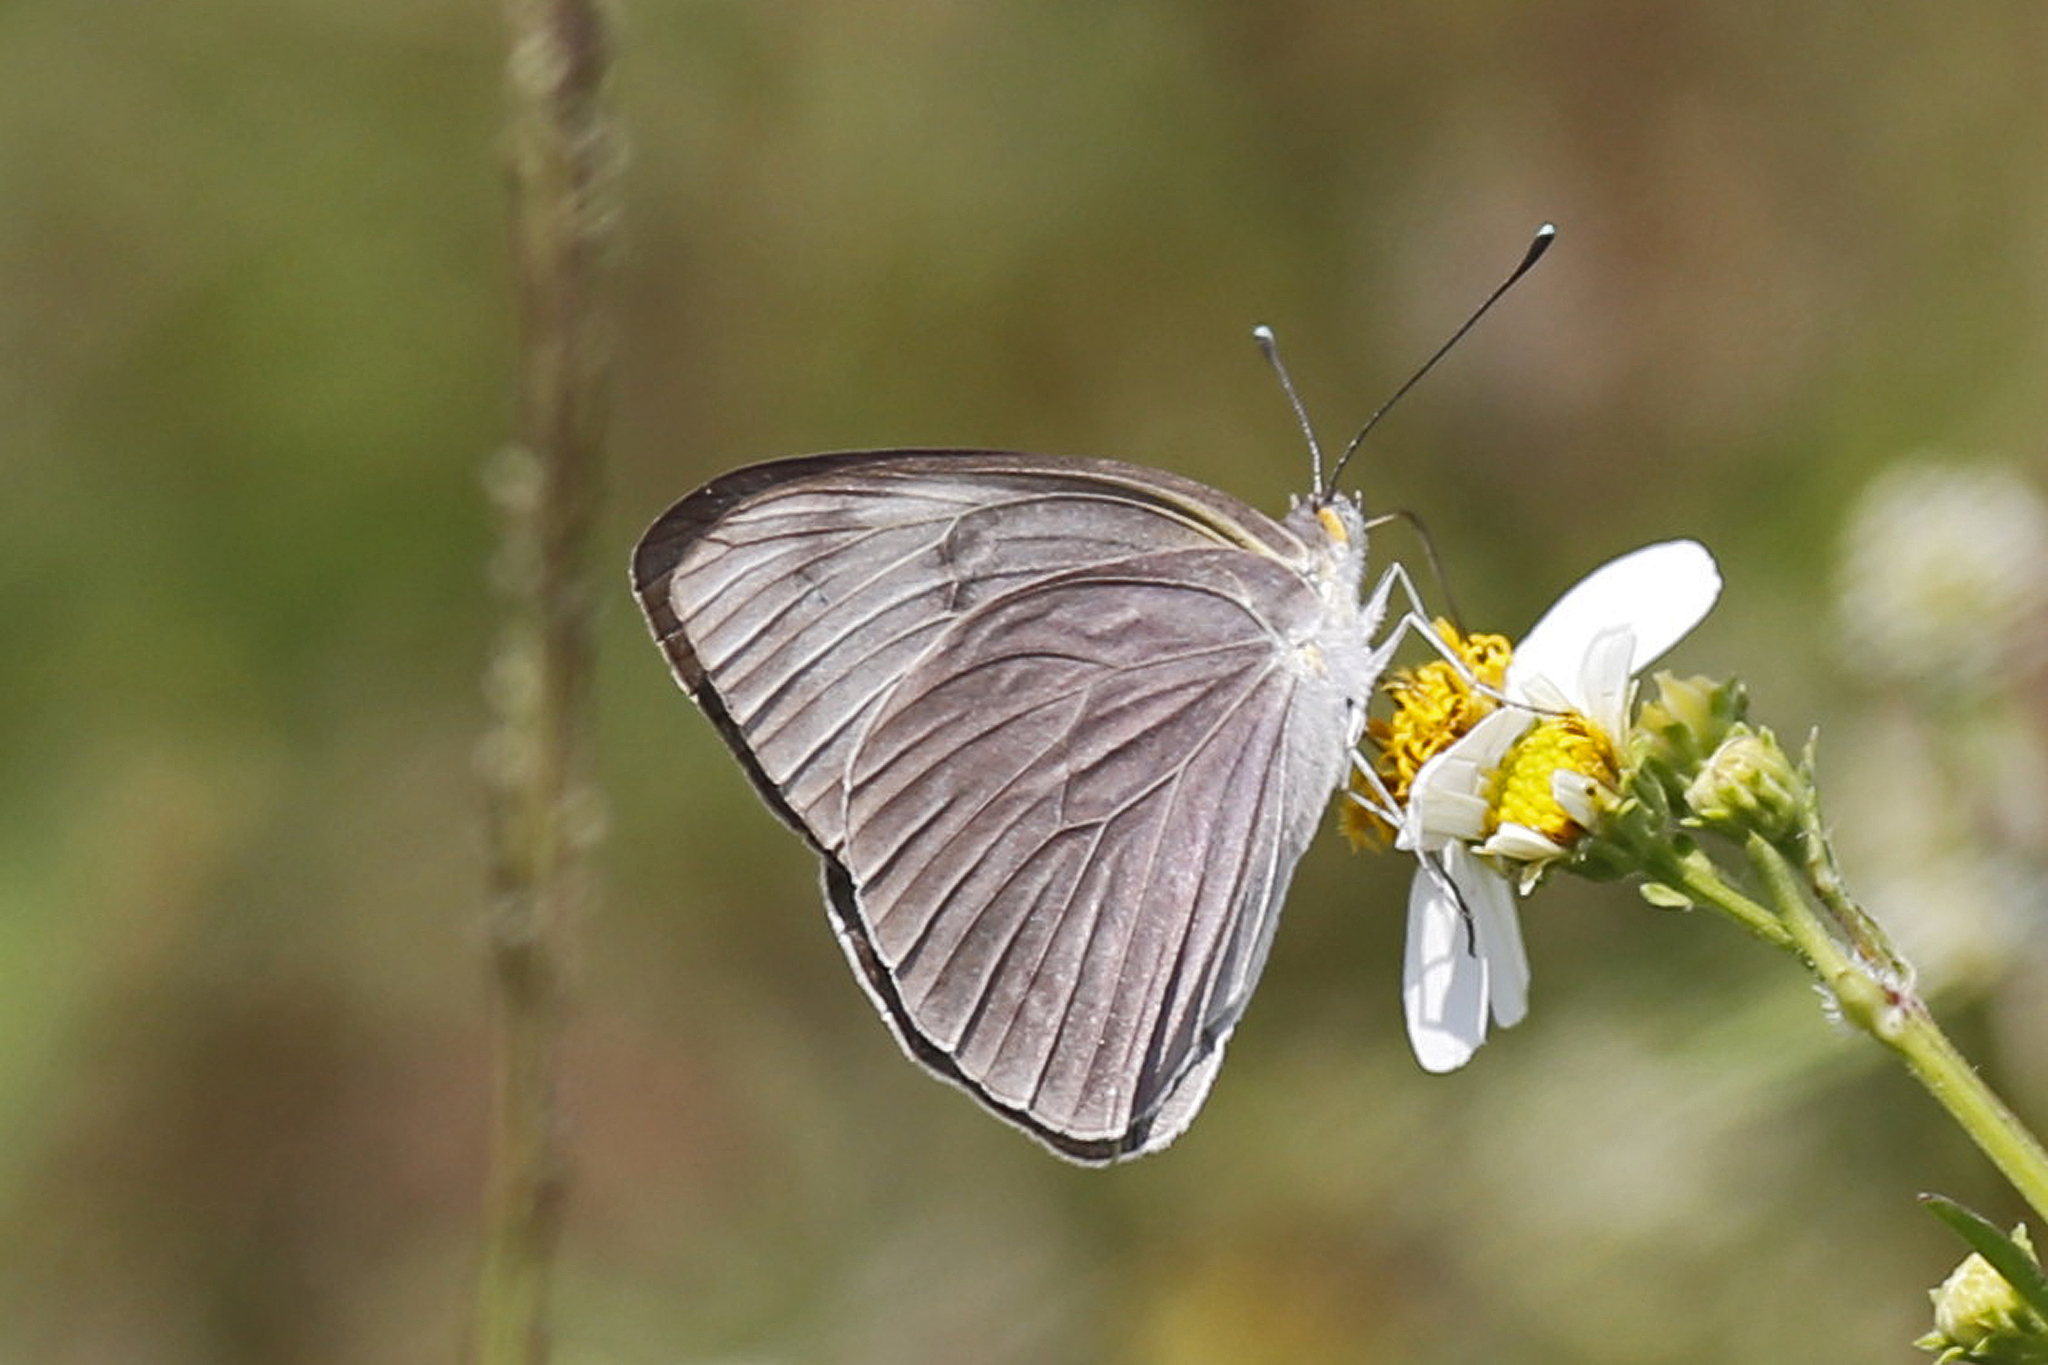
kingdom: Animalia
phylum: Arthropoda
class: Insecta
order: Lepidoptera
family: Pieridae
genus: Ascia
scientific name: Ascia monuste
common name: Great southern white
